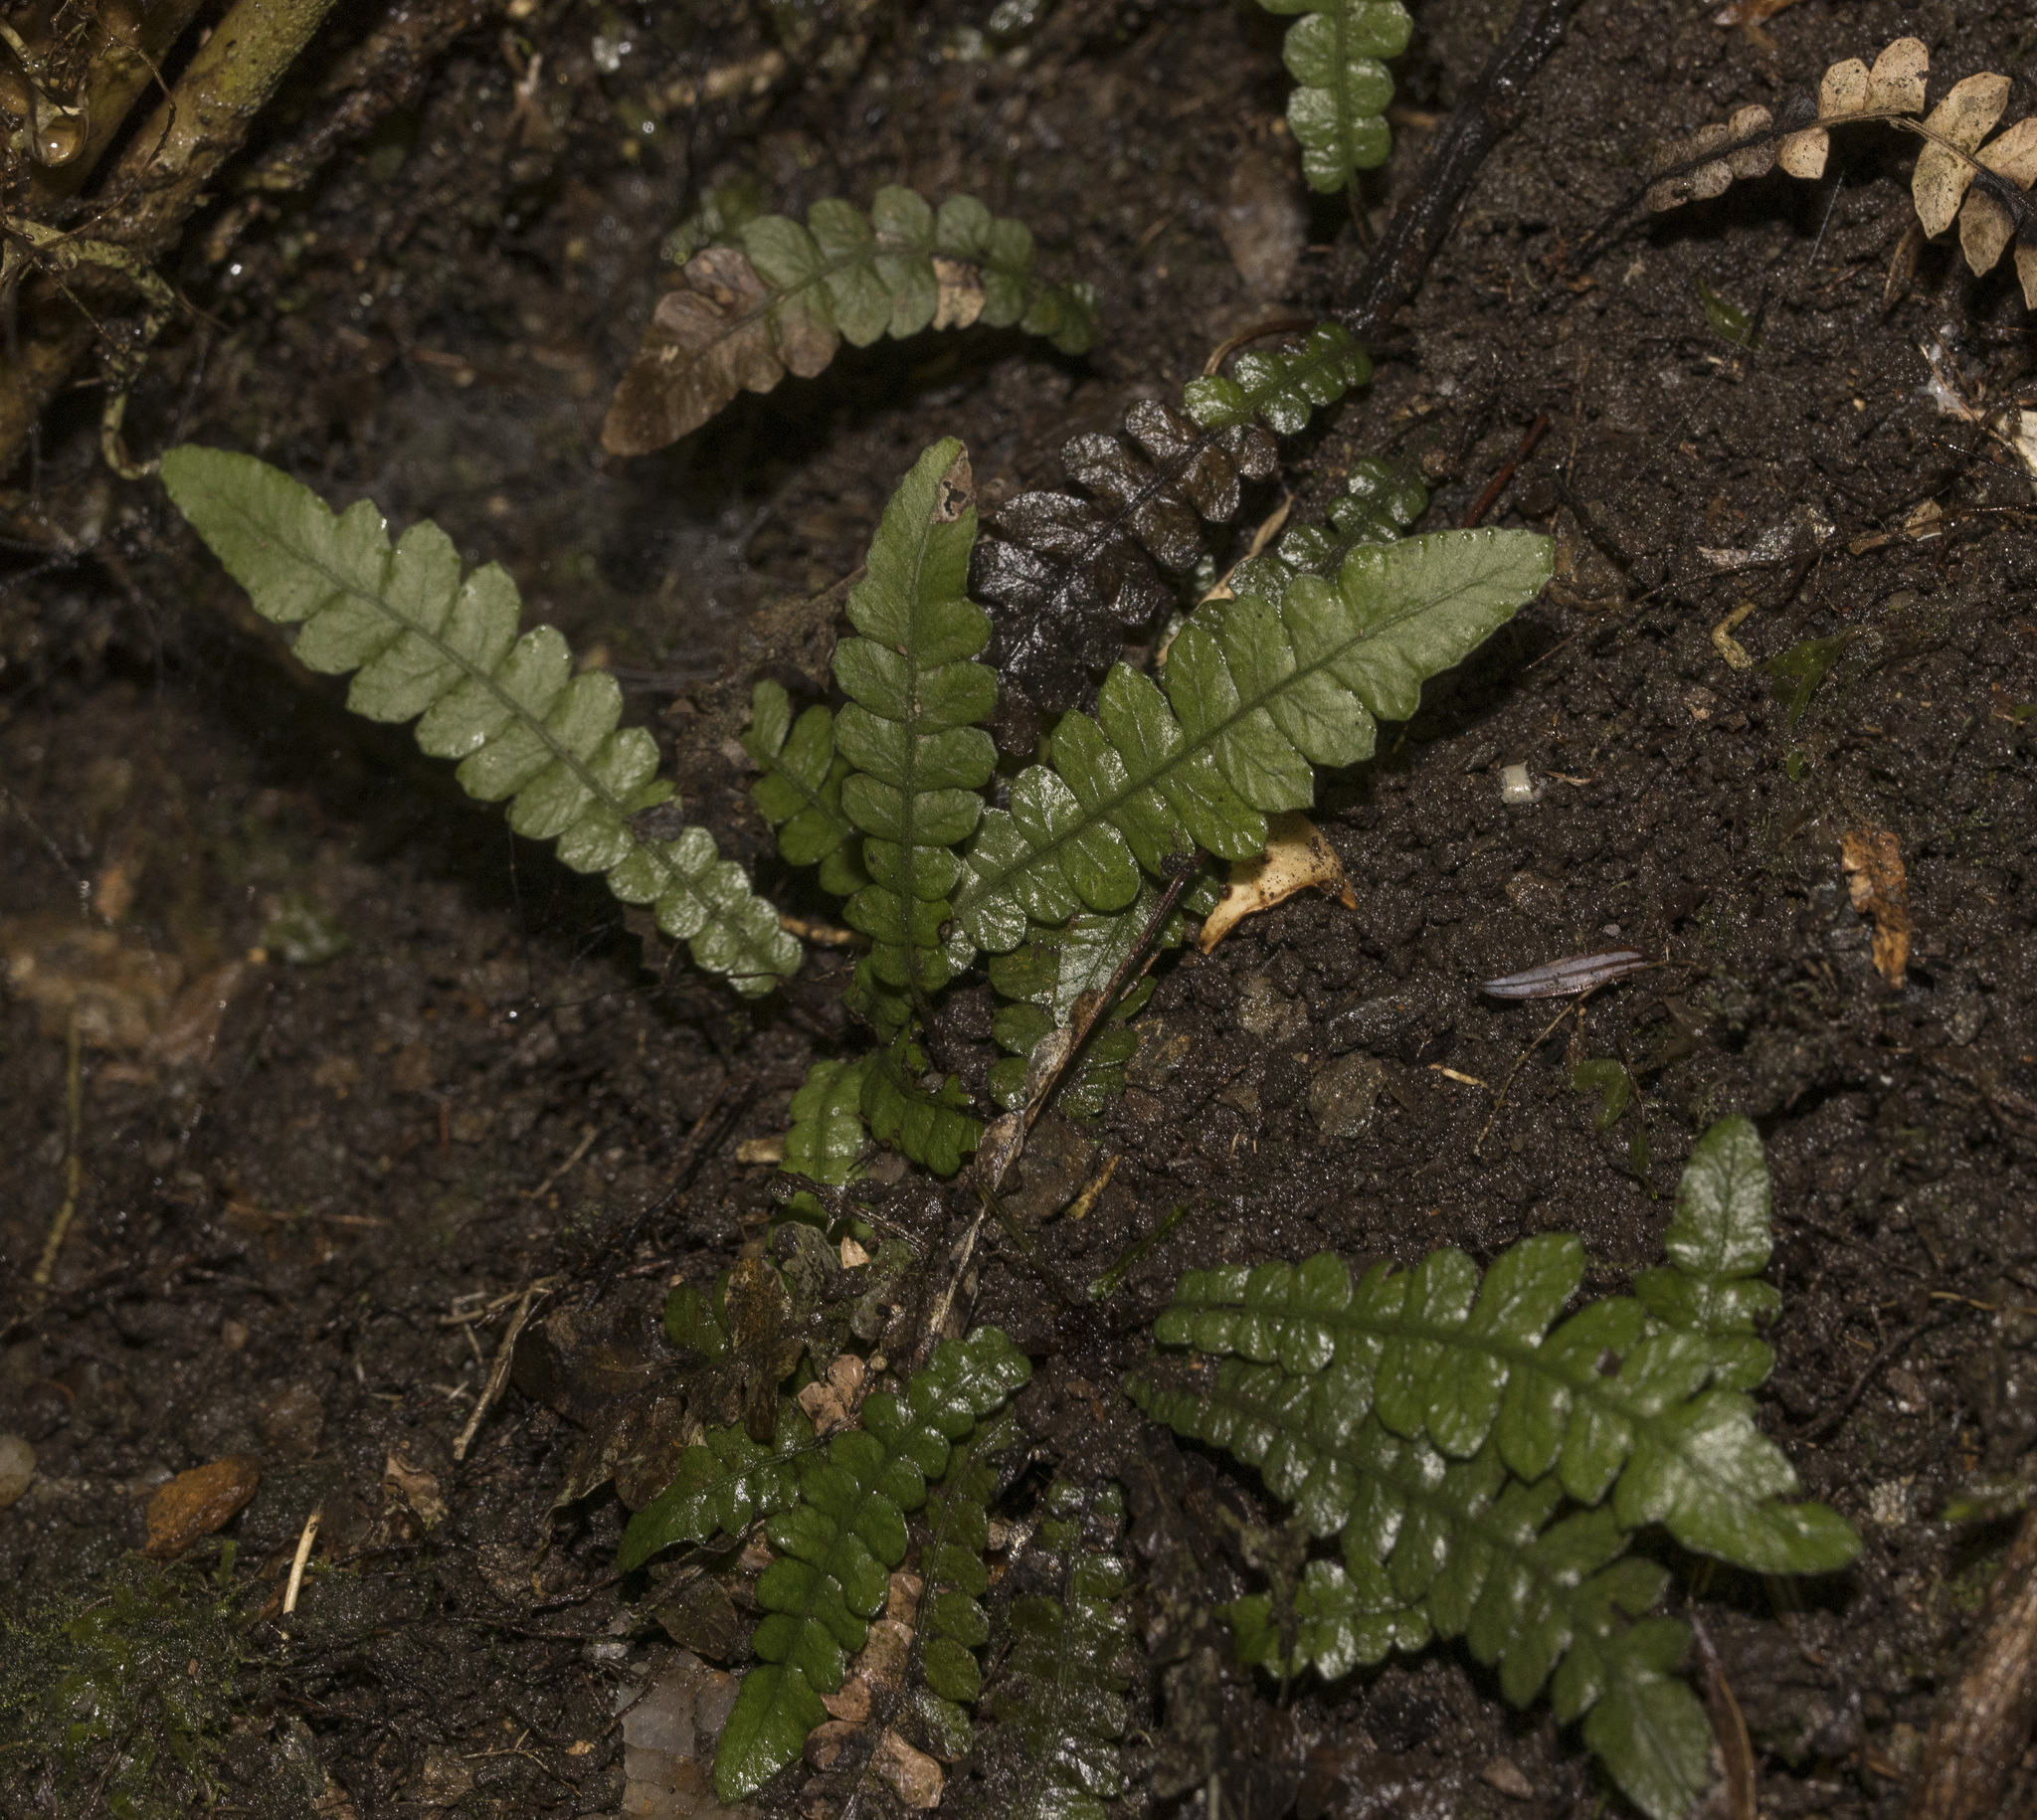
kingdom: Plantae
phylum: Tracheophyta
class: Polypodiopsida
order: Polypodiales
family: Blechnaceae
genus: Blechnum
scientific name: Blechnum corralense
